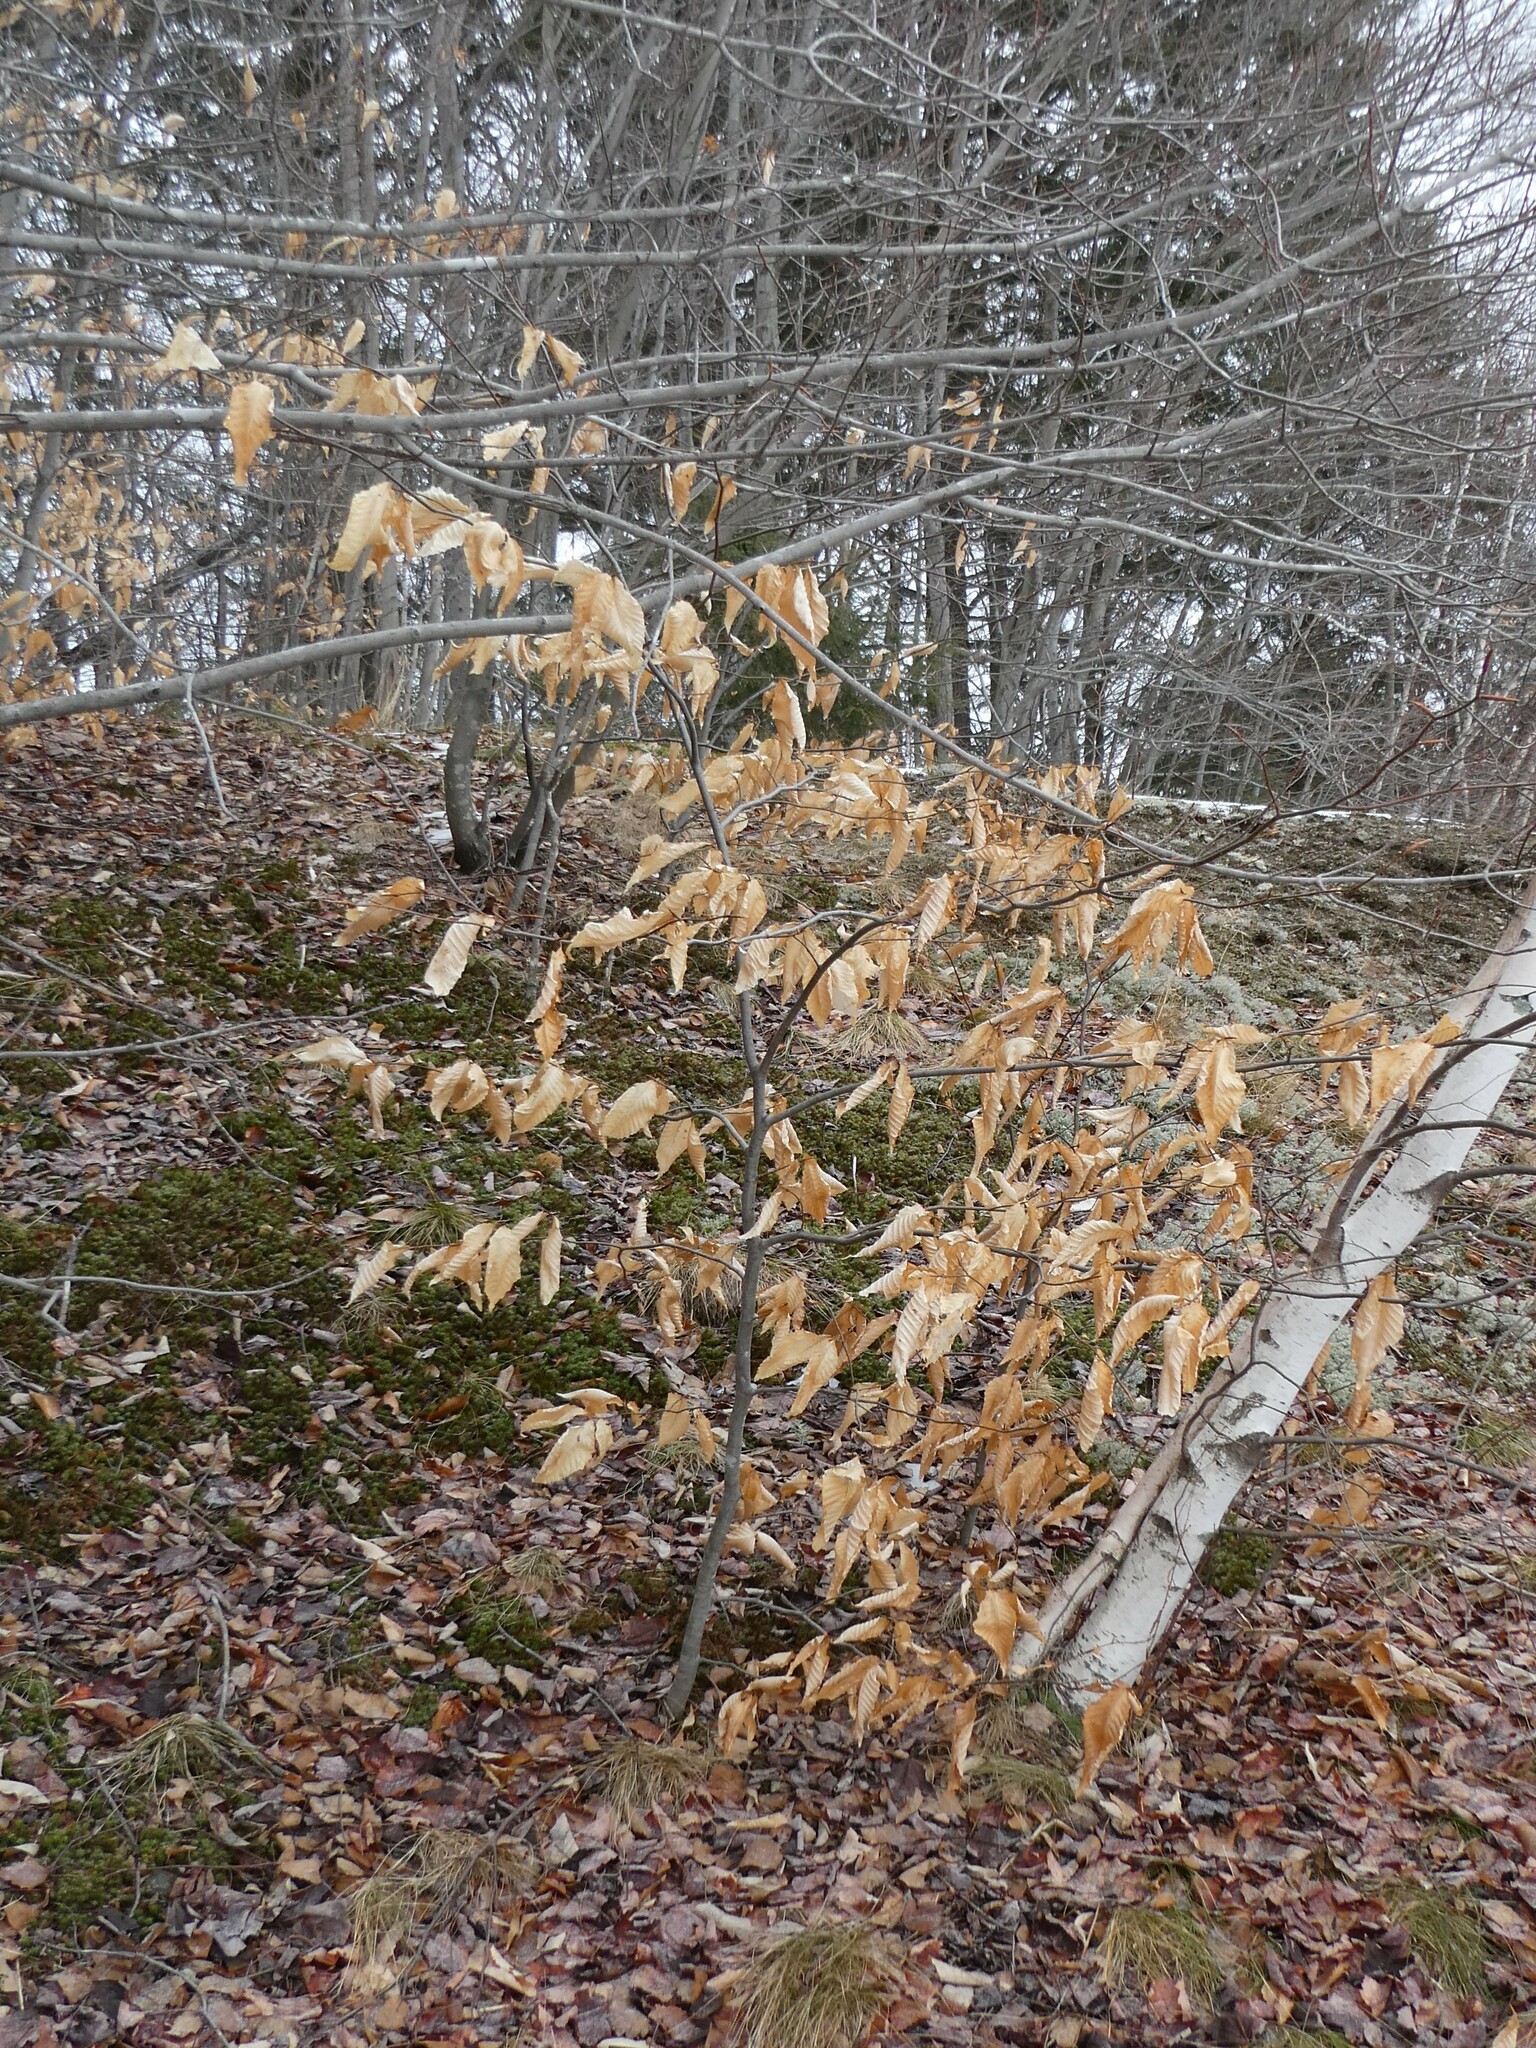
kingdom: Plantae
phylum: Tracheophyta
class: Magnoliopsida
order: Fagales
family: Fagaceae
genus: Fagus
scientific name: Fagus grandifolia
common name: American beech
